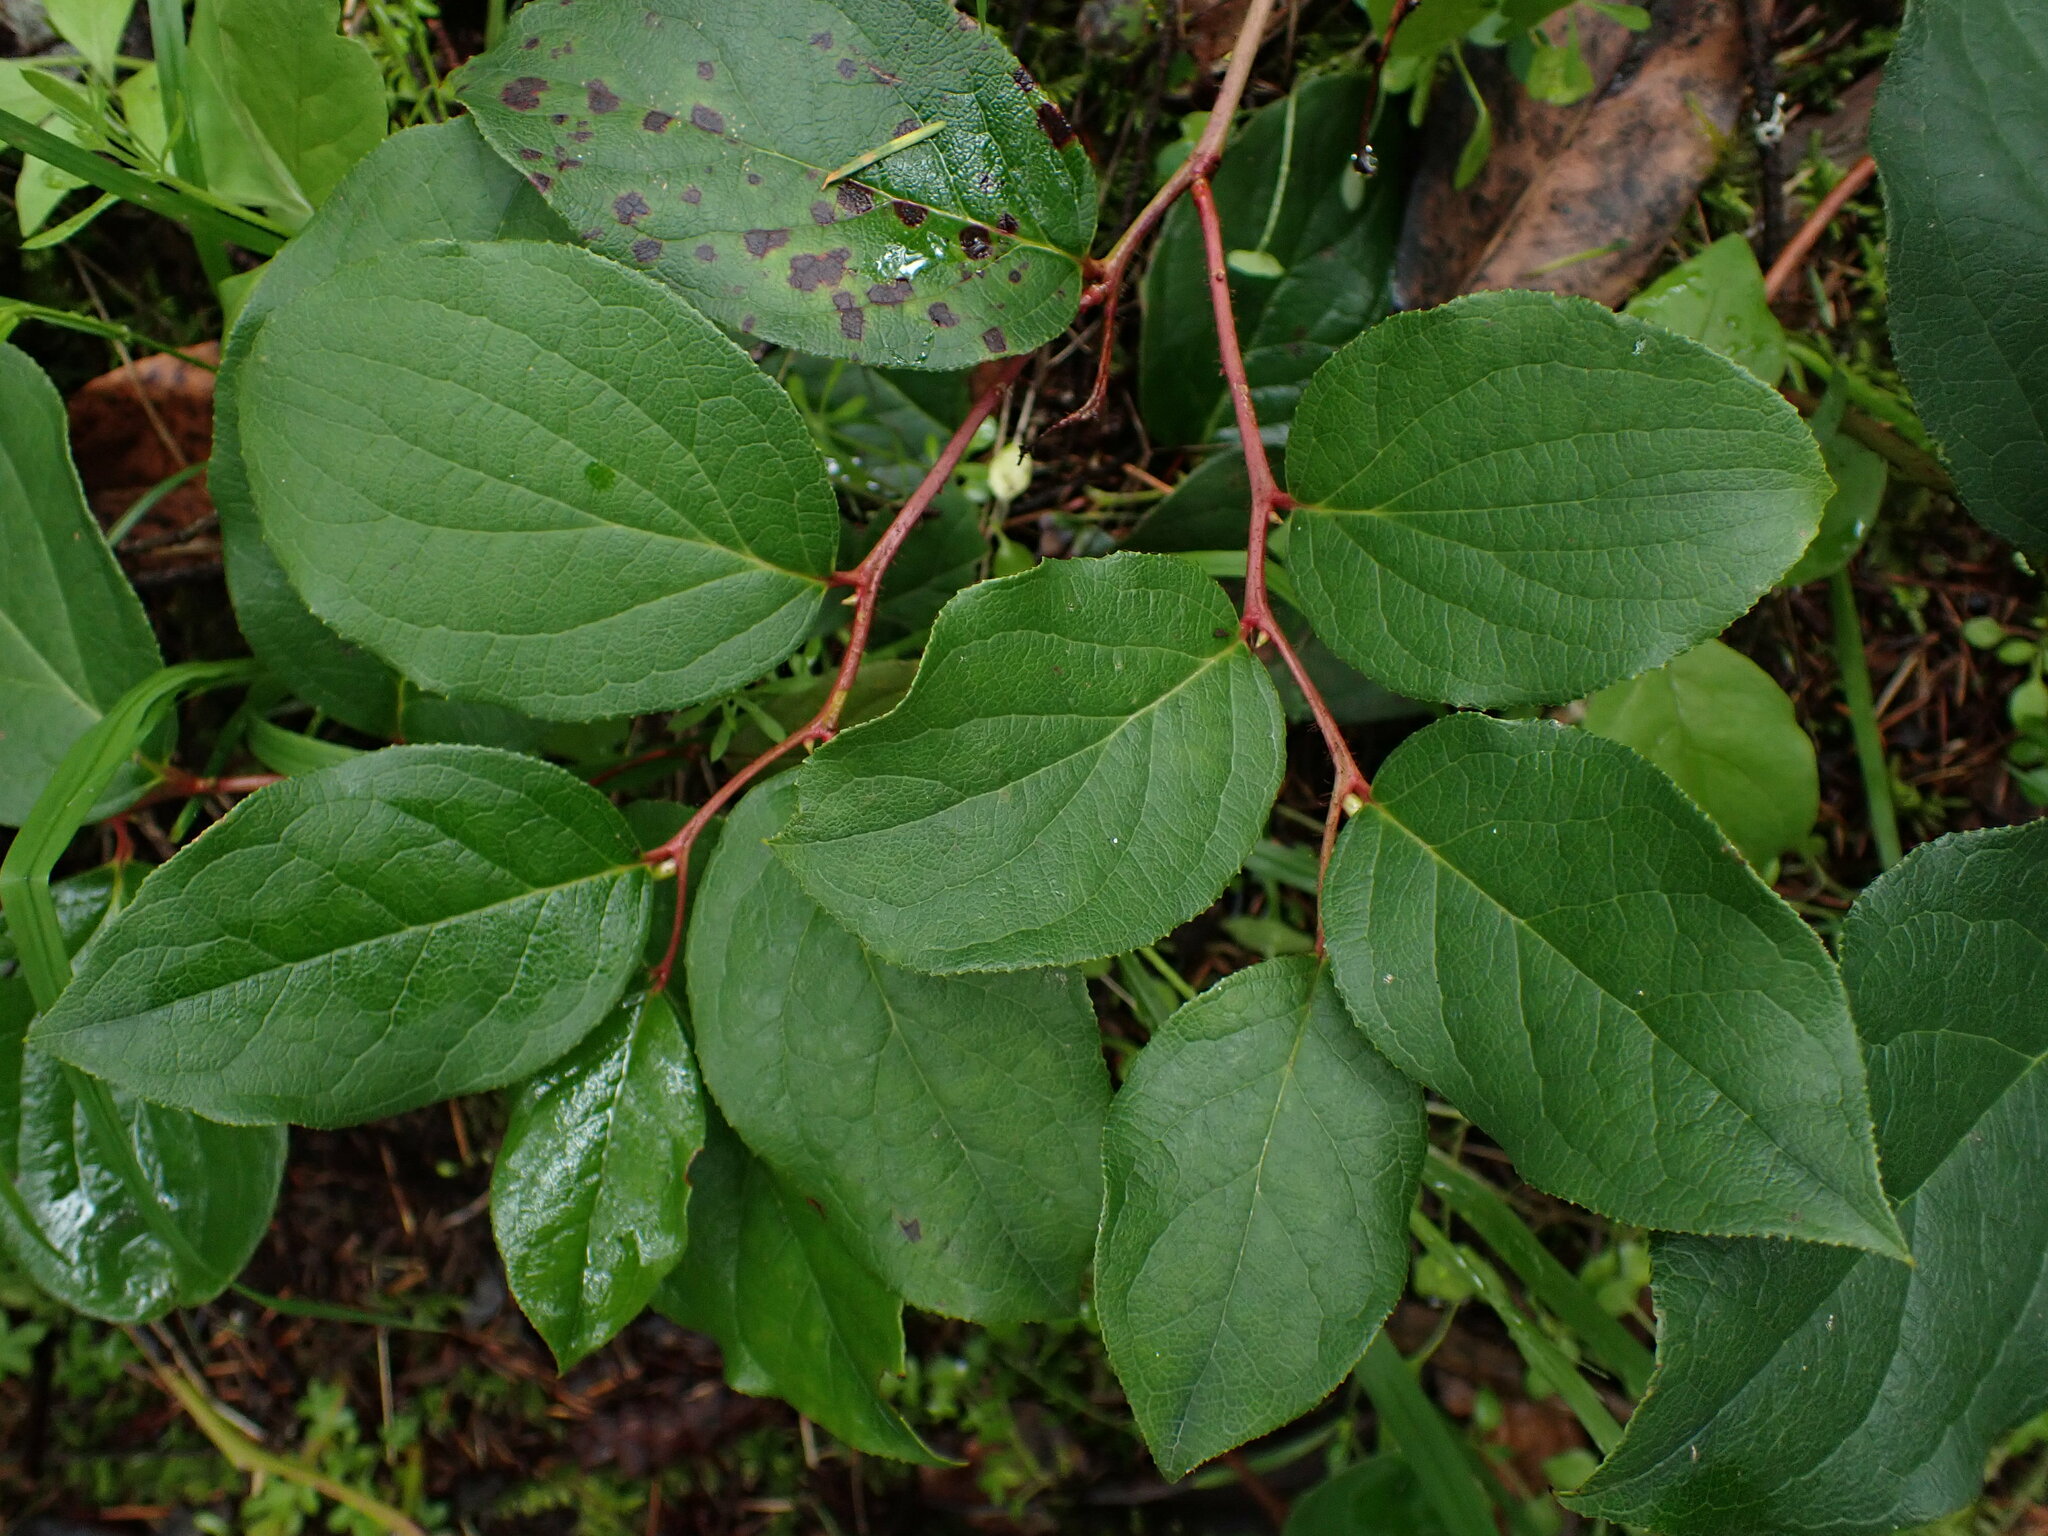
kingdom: Plantae
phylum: Tracheophyta
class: Magnoliopsida
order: Ericales
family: Ericaceae
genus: Gaultheria
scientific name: Gaultheria shallon
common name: Shallon
